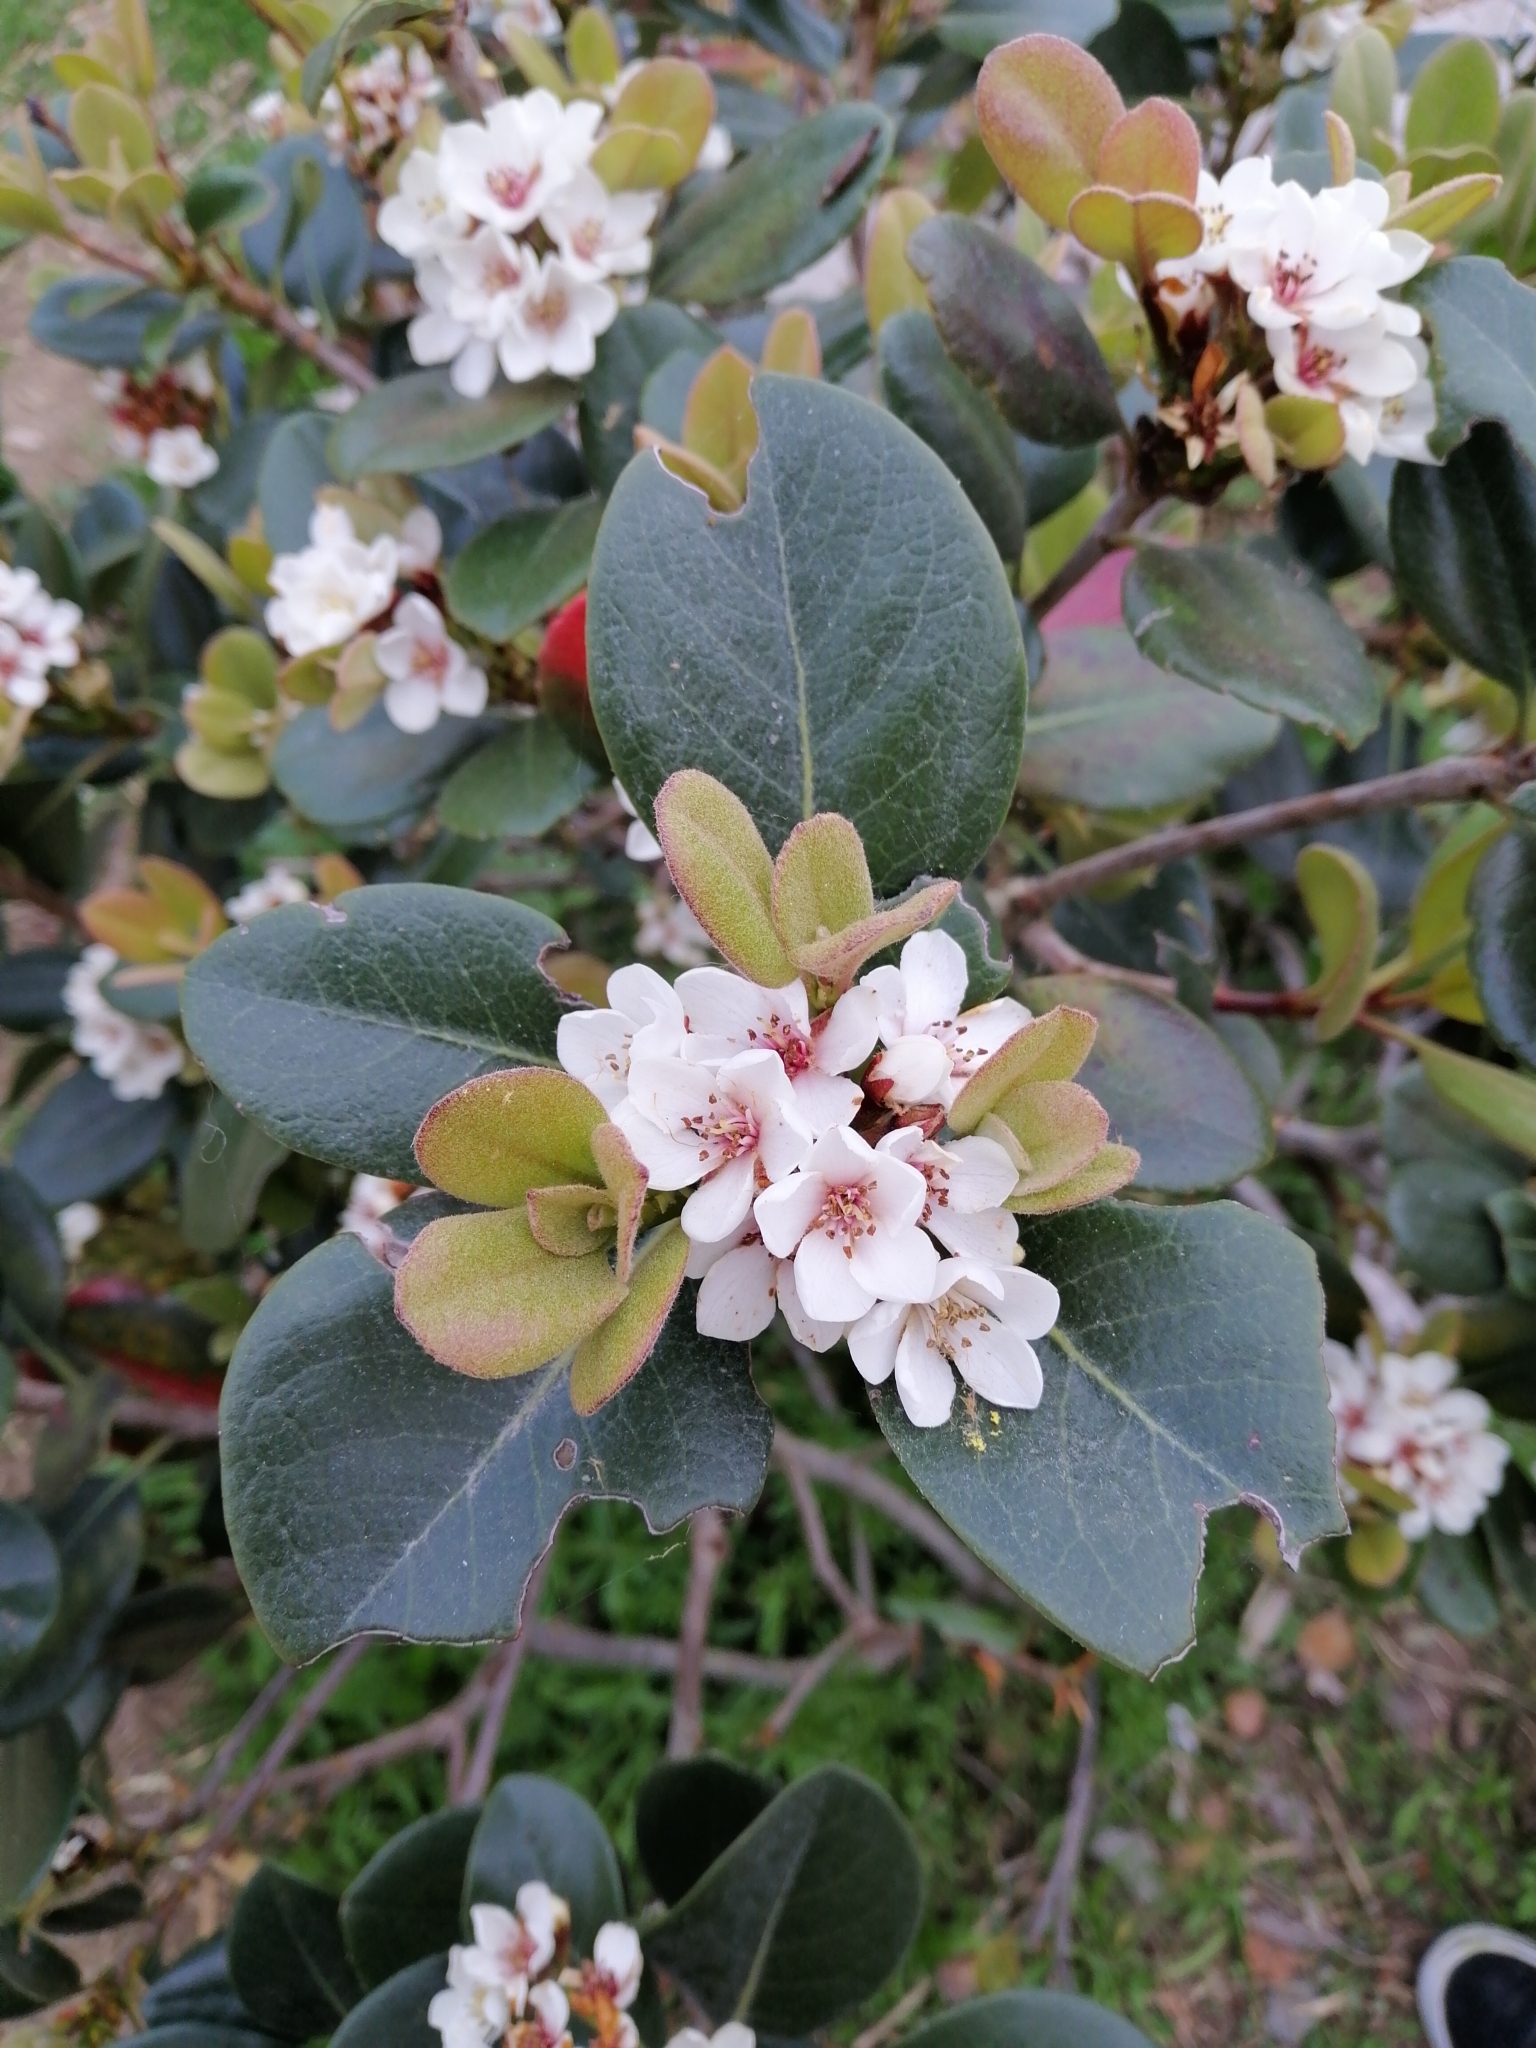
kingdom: Plantae
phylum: Tracheophyta
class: Magnoliopsida
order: Rosales
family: Rosaceae
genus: Rhaphiolepis
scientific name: Rhaphiolepis indica
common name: India-hawthorn
